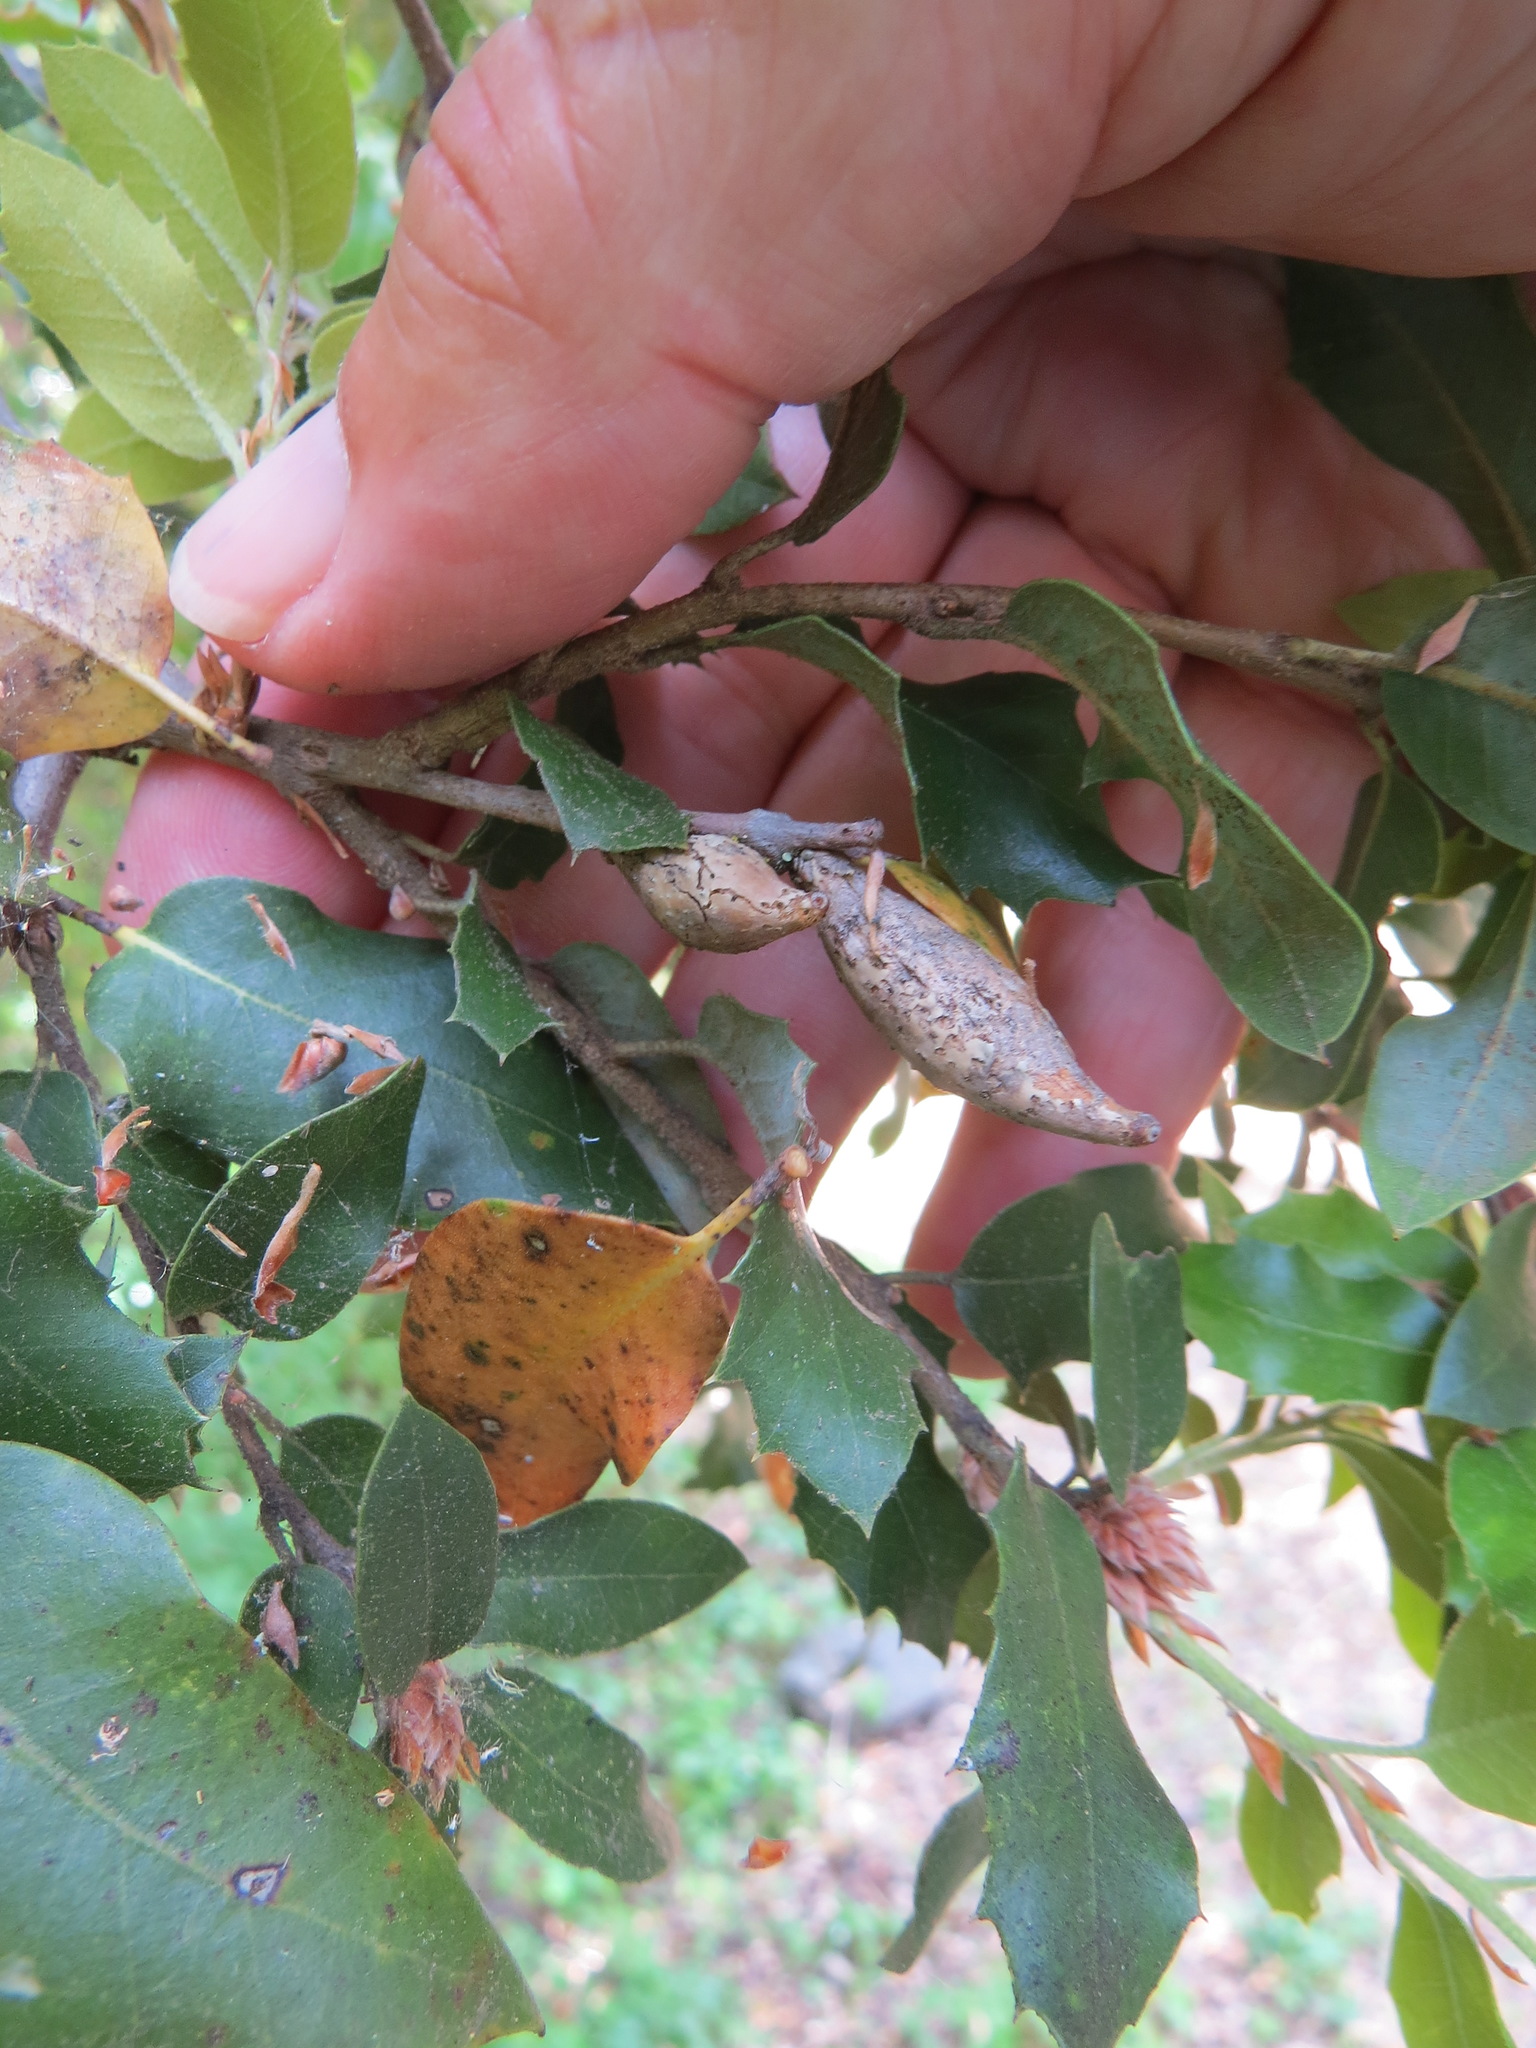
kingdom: Animalia
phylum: Arthropoda
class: Insecta
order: Hymenoptera
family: Cynipidae
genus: Heteroecus
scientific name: Heteroecus pacificus
